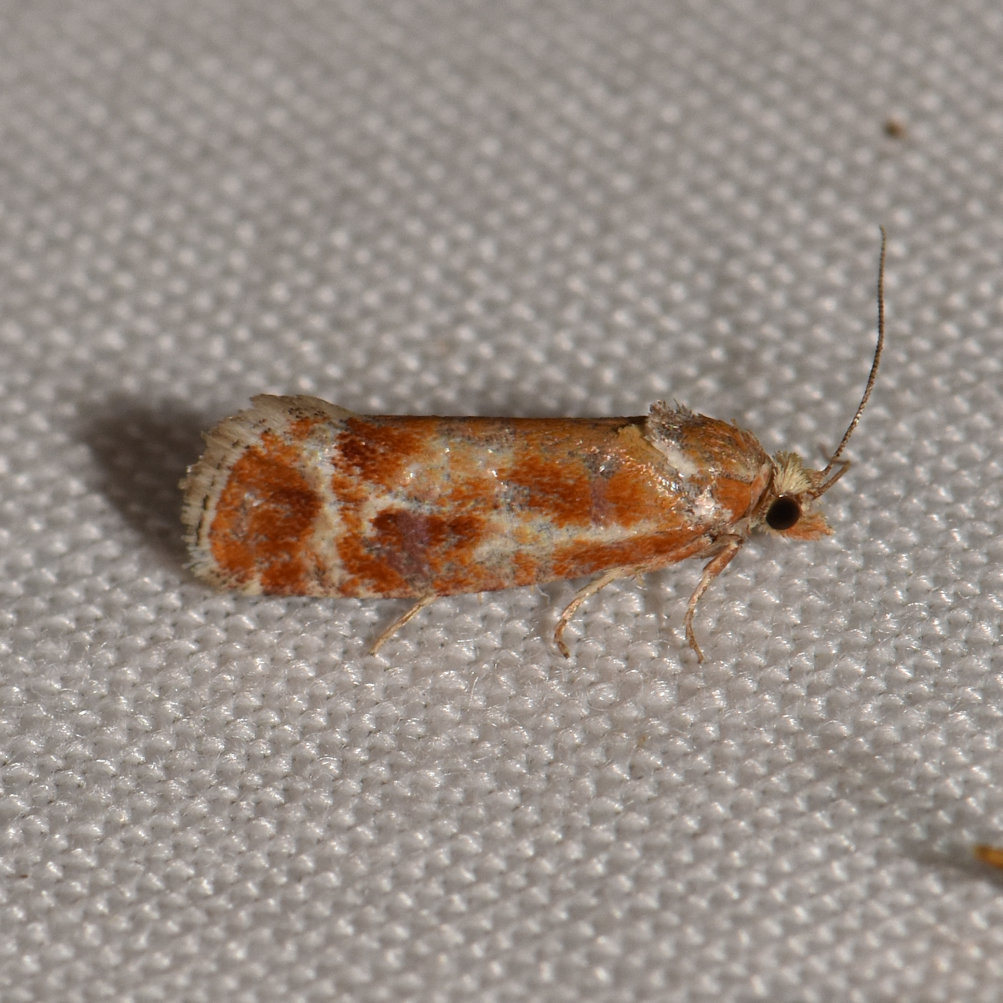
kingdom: Animalia
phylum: Arthropoda
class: Insecta
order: Lepidoptera
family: Tortricidae
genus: Rhyacionia
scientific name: Rhyacionia buoliana
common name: European pine shoot moth
